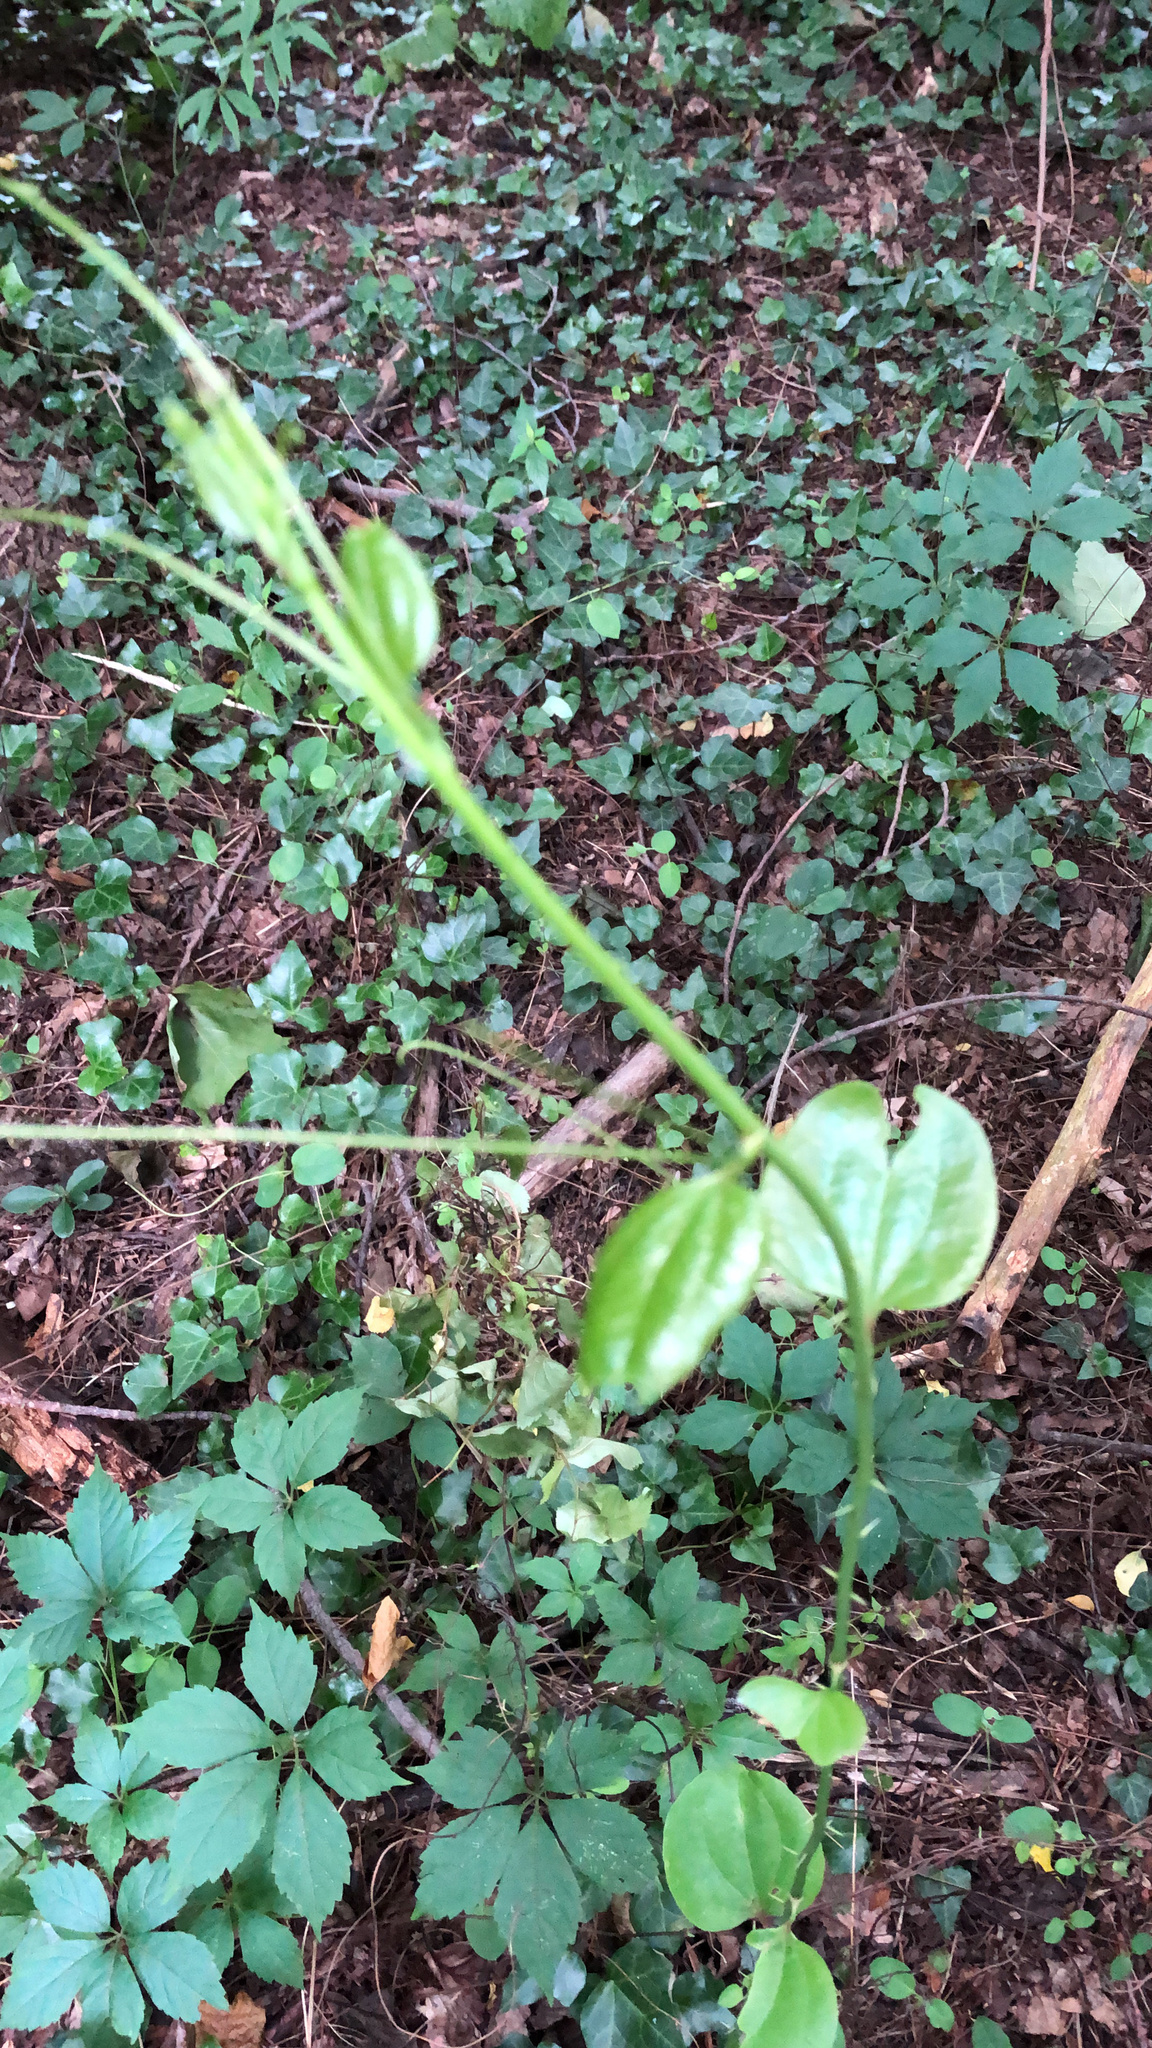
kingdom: Plantae
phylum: Tracheophyta
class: Liliopsida
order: Liliales
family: Smilacaceae
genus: Smilax
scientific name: Smilax rotundifolia
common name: Bullbriar
